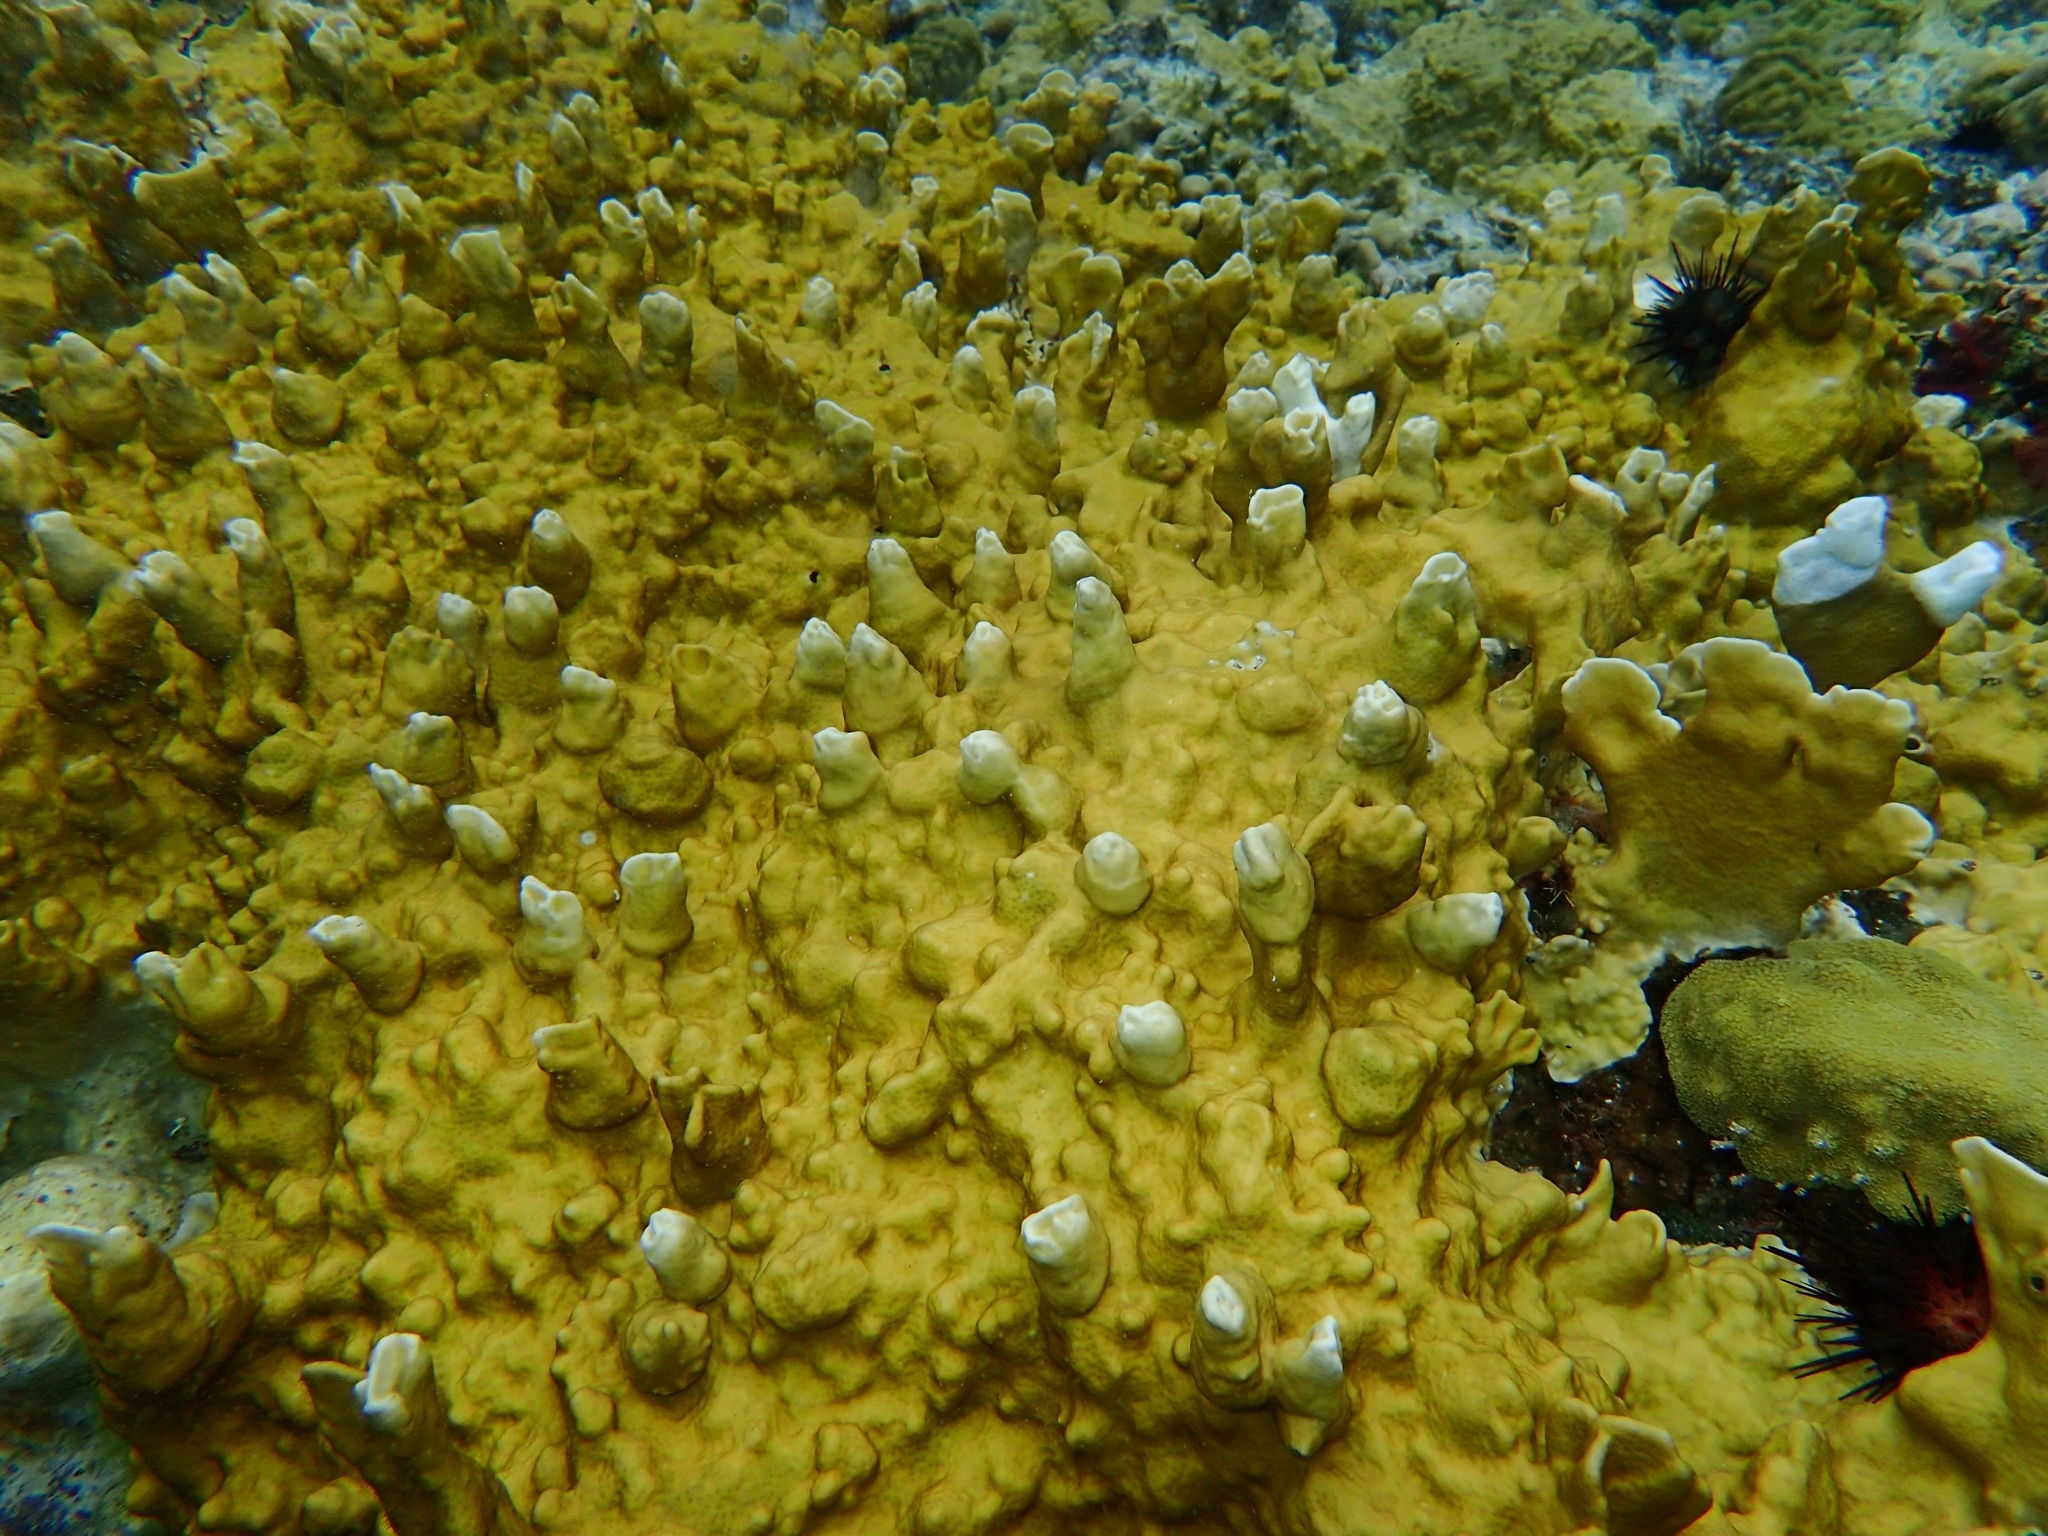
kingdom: Animalia
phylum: Cnidaria
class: Hydrozoa
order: Anthoathecata
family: Milleporidae
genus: Millepora
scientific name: Millepora alcicornis
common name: Branching fire coral
